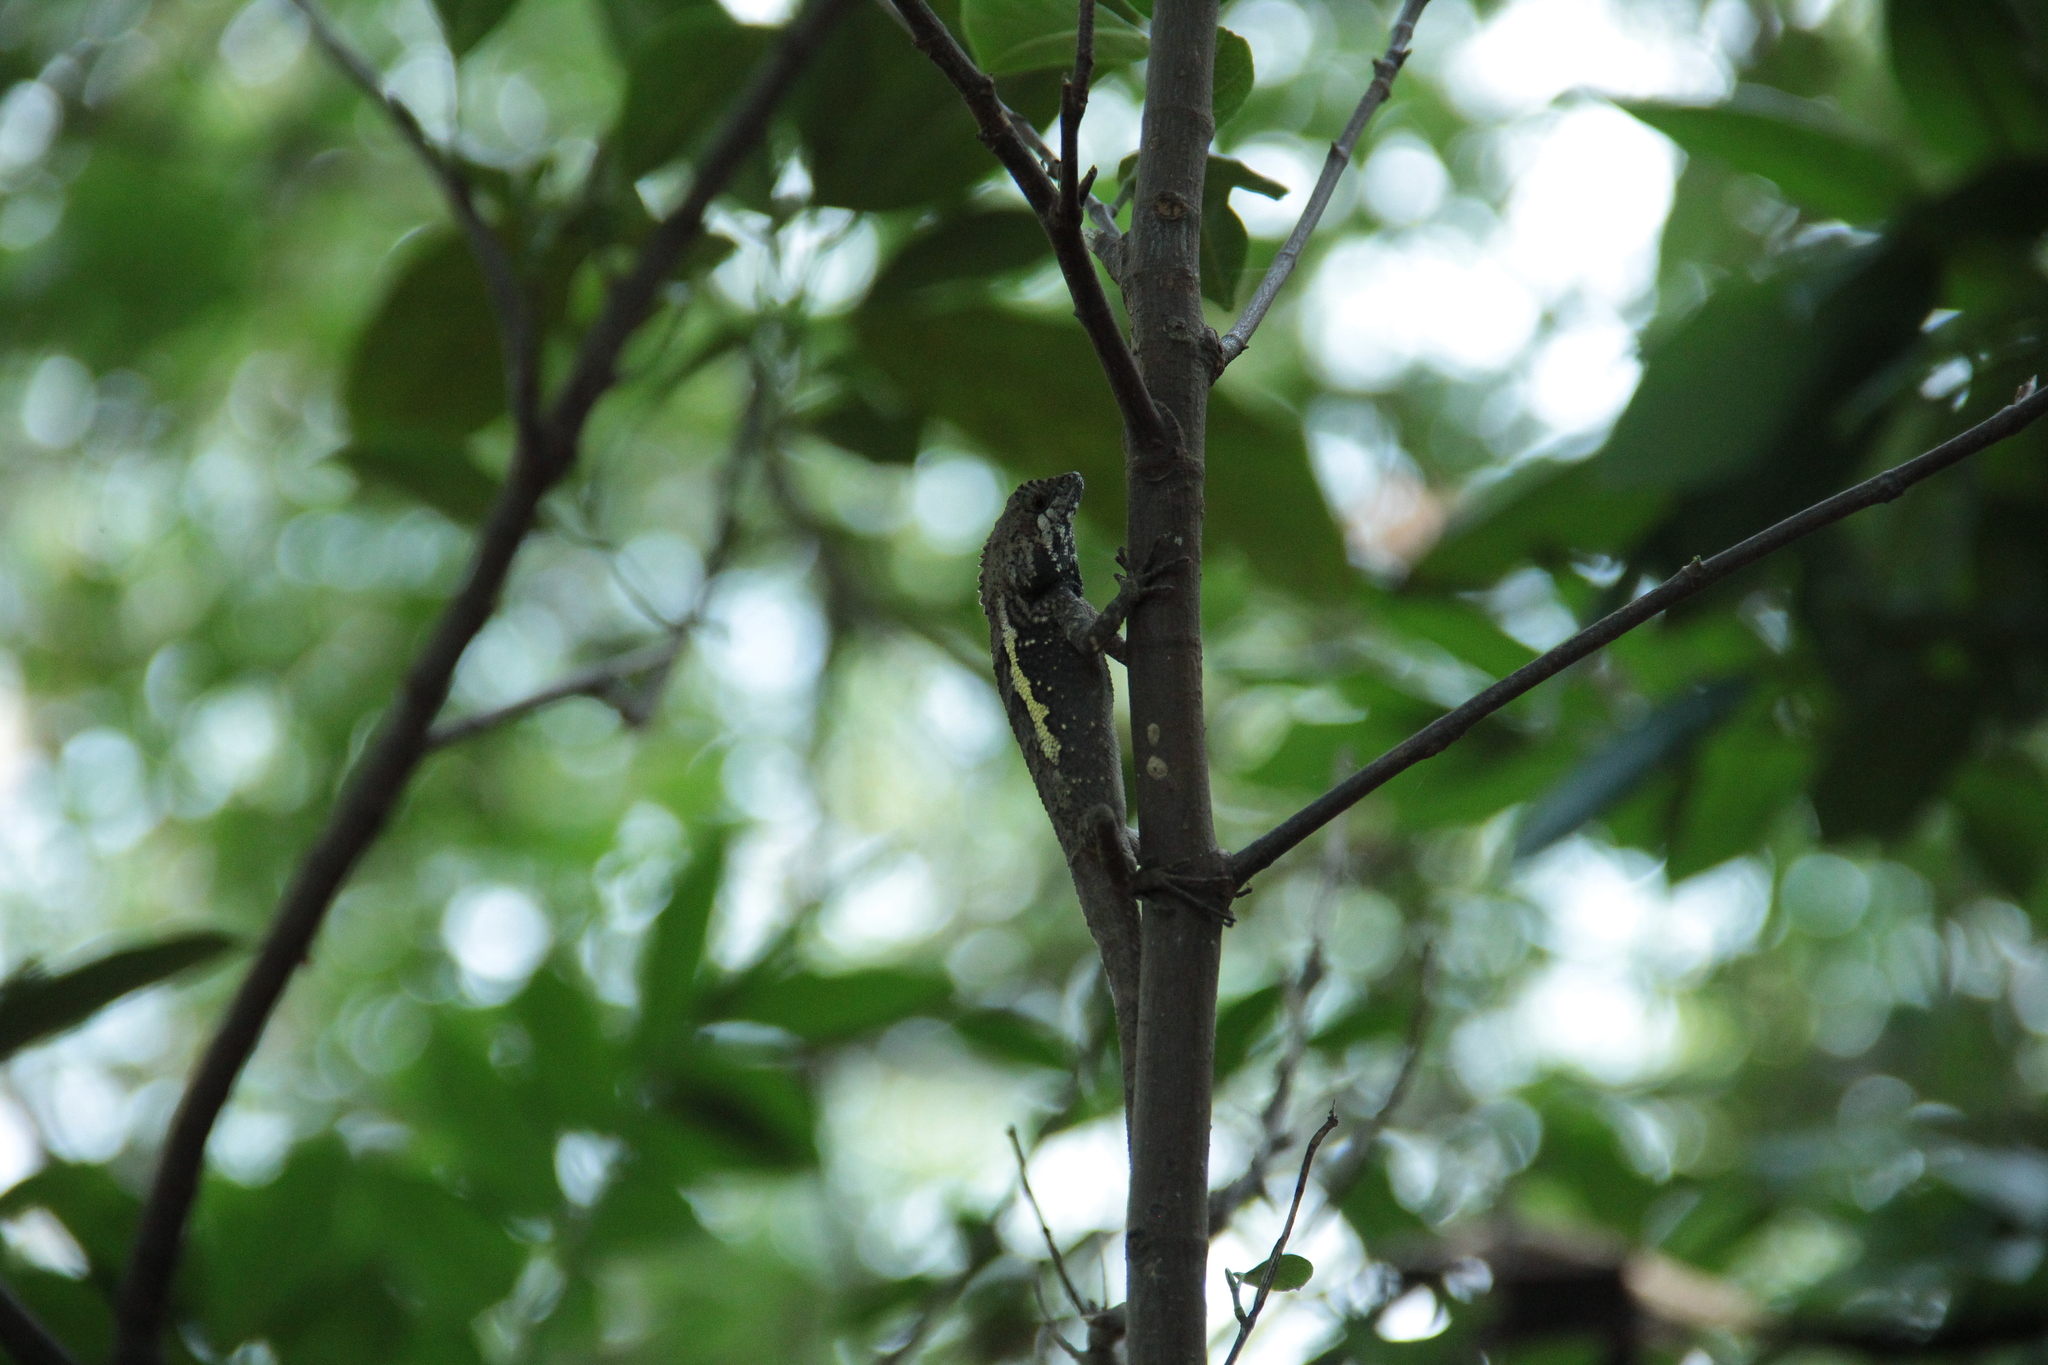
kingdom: Animalia
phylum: Chordata
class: Squamata
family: Agamidae
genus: Diploderma
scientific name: Diploderma swinhonis
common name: Taiwan japalure
